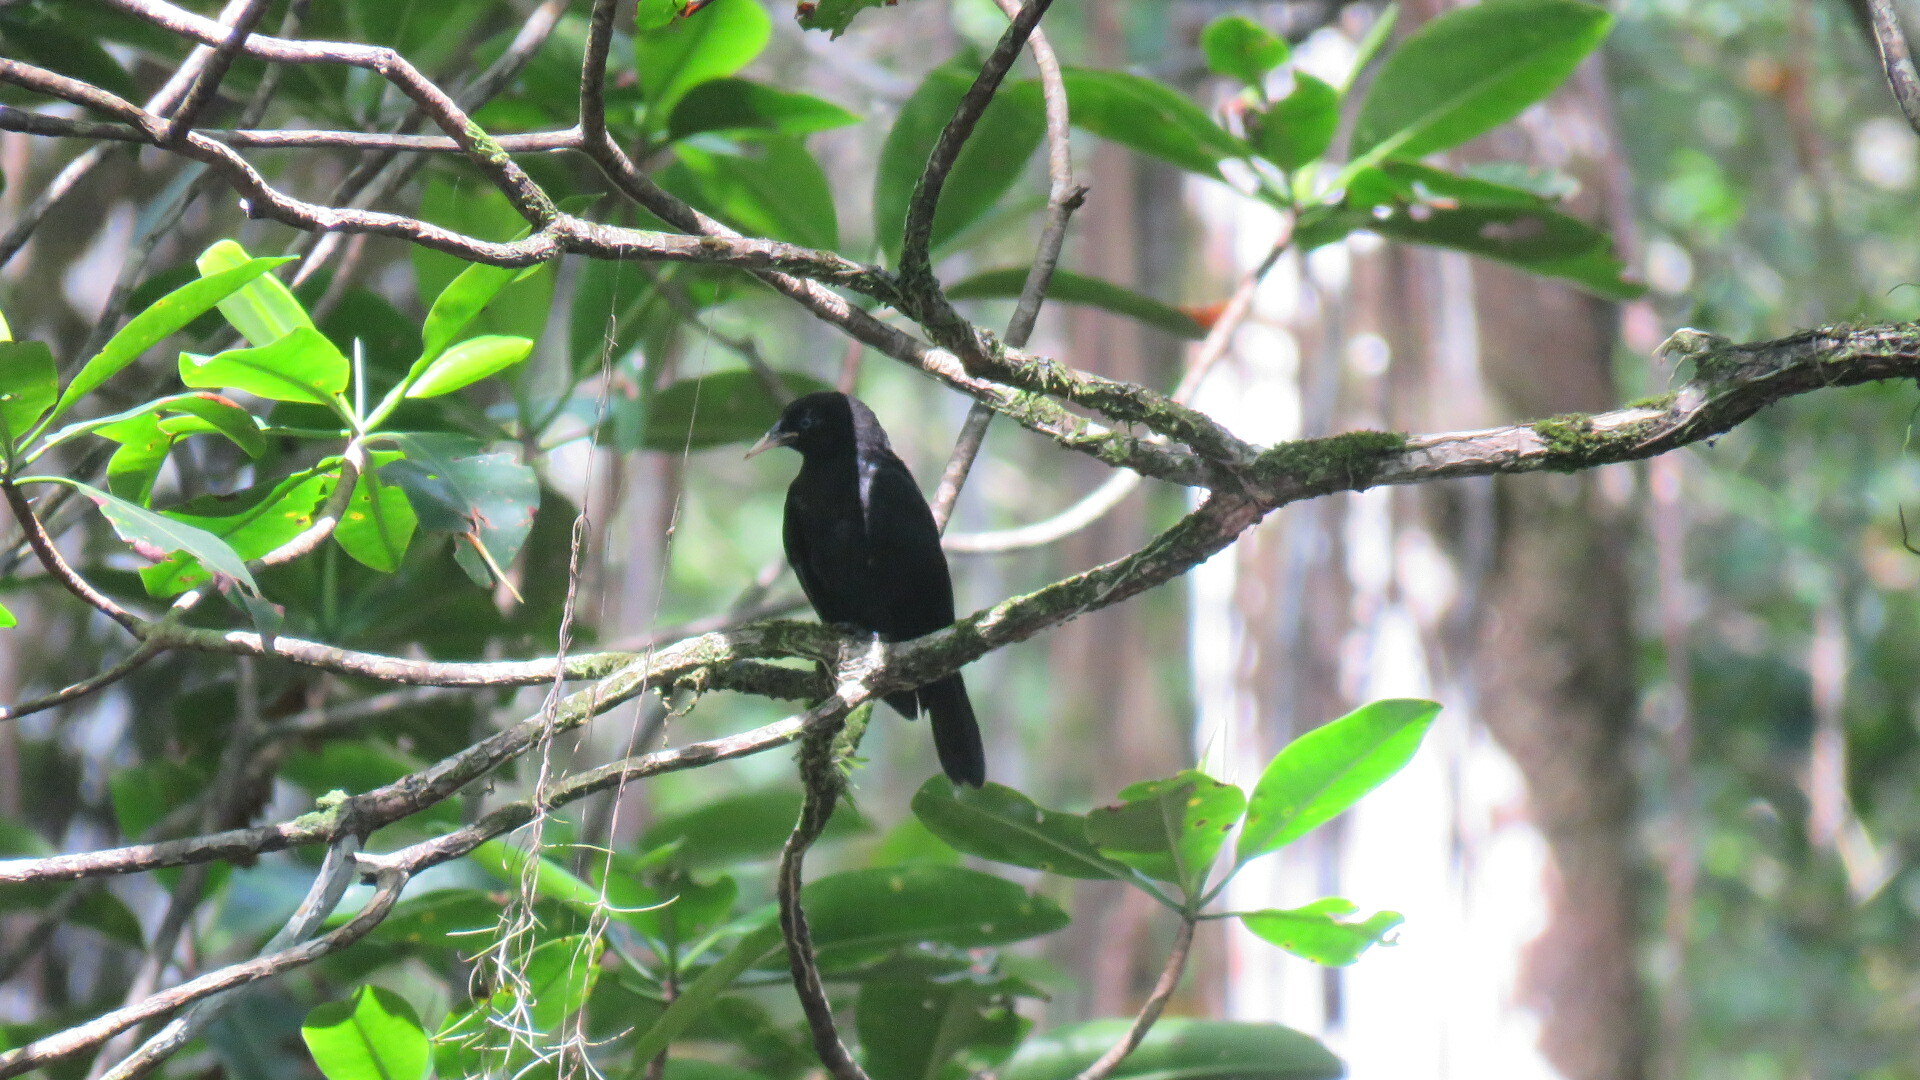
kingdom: Animalia
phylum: Chordata
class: Aves
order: Passeriformes
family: Icteridae
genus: Cacicus
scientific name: Cacicus uropygialis
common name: Scarlet-rumped cacique
